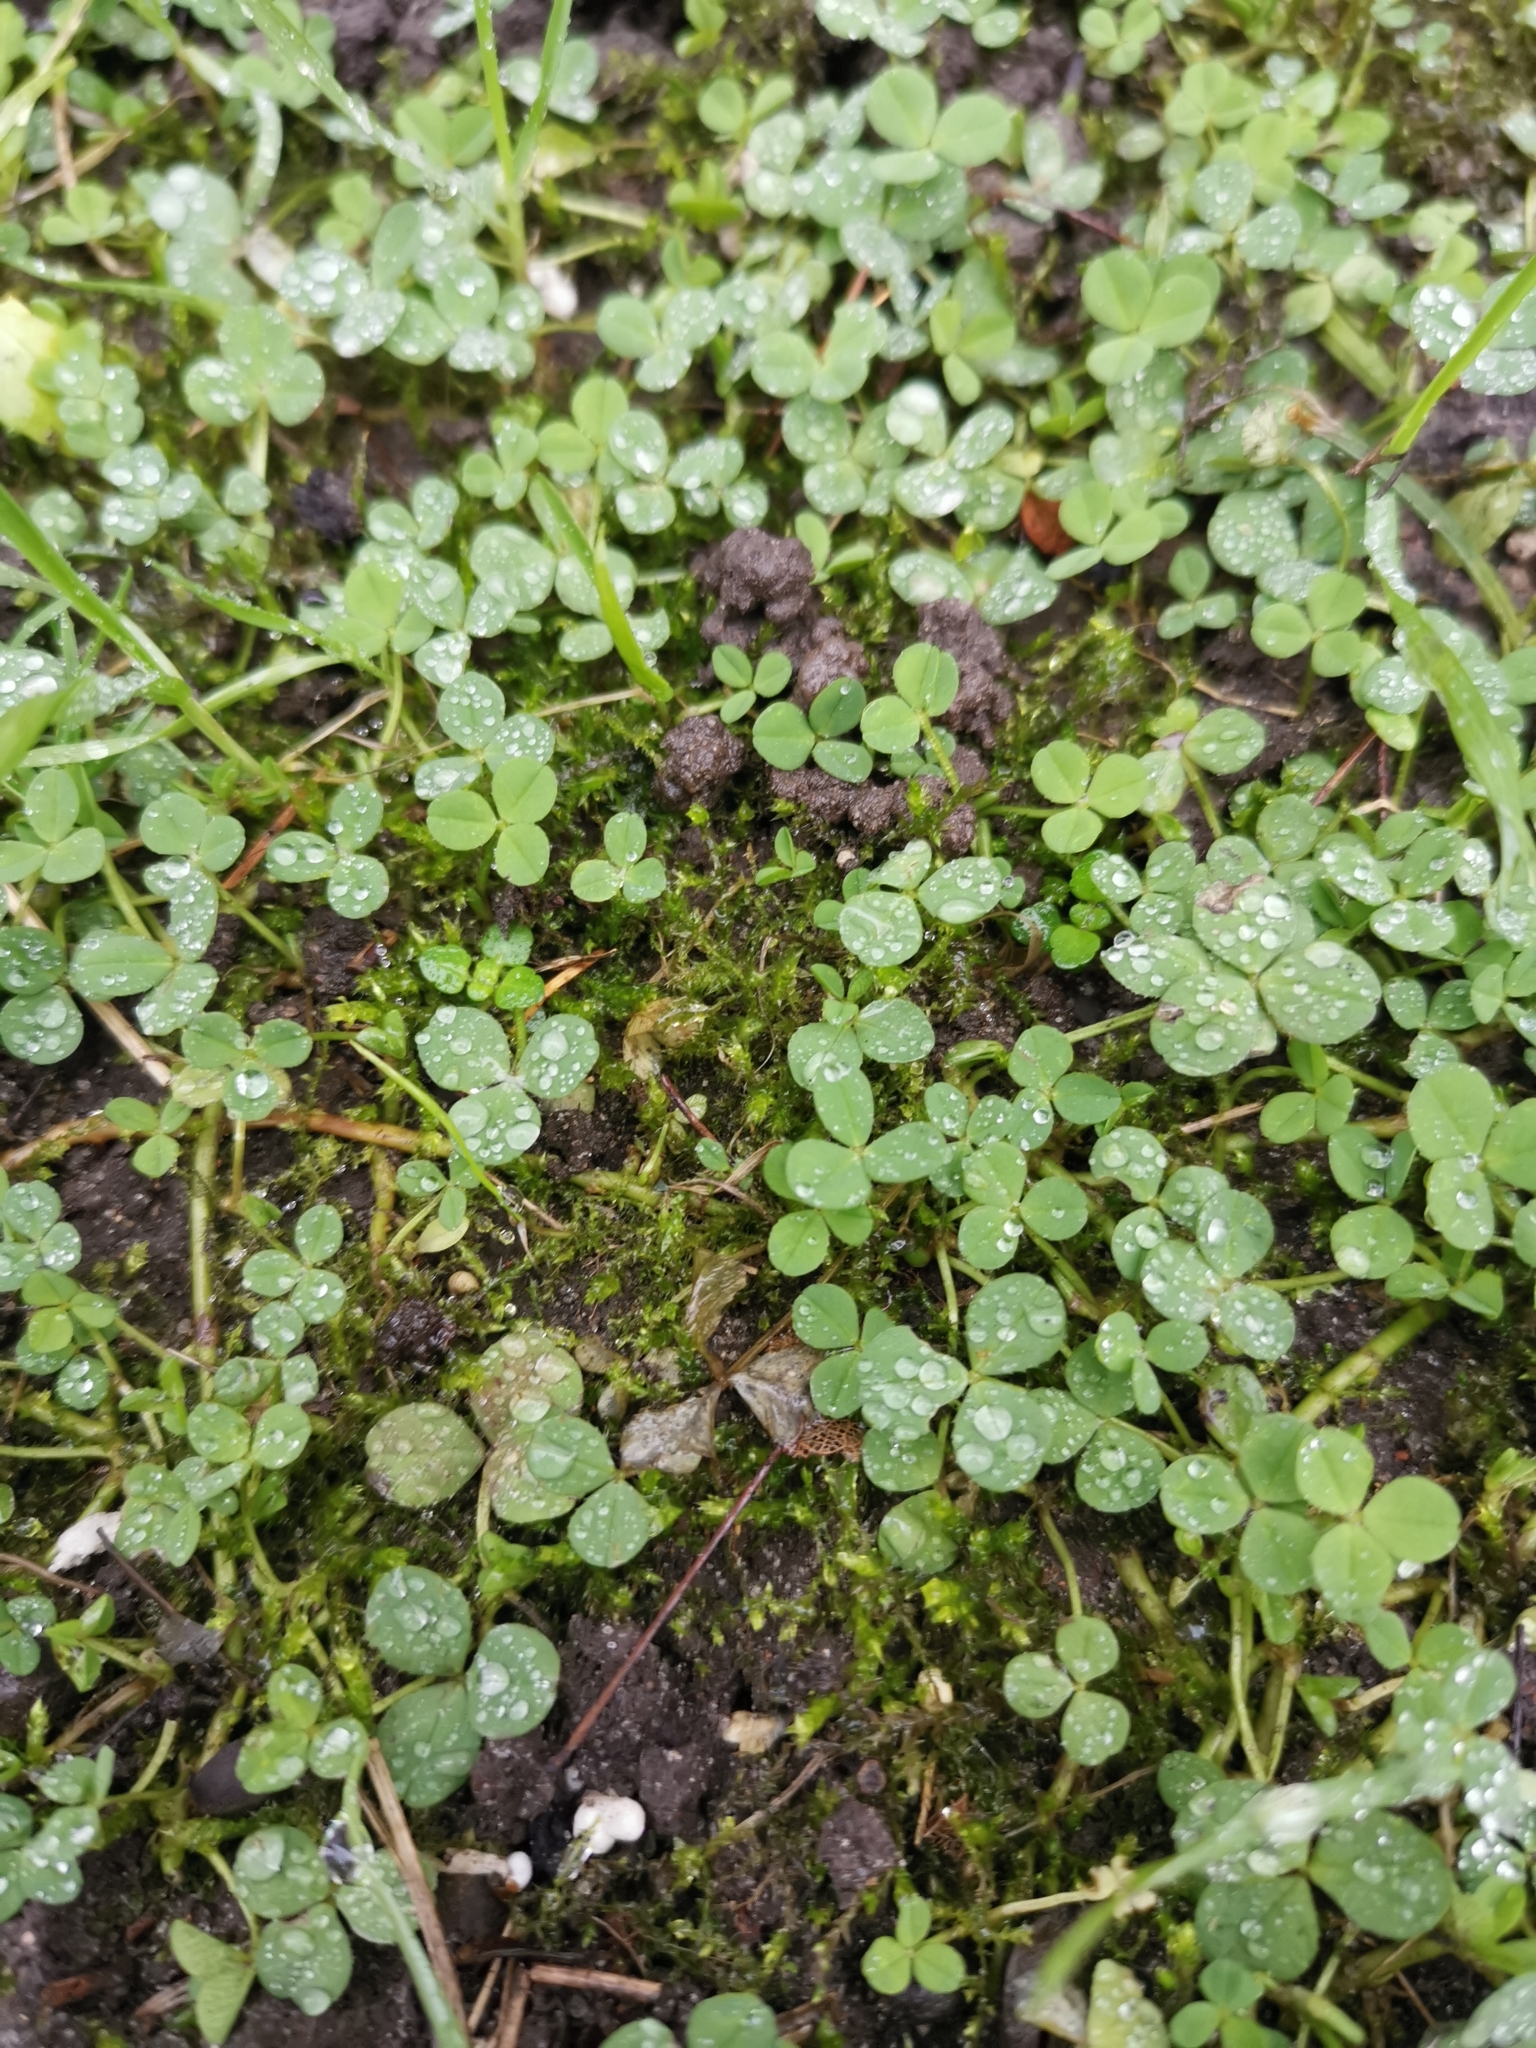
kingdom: Plantae
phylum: Tracheophyta
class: Magnoliopsida
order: Fabales
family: Fabaceae
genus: Trifolium
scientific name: Trifolium repens
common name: White clover
